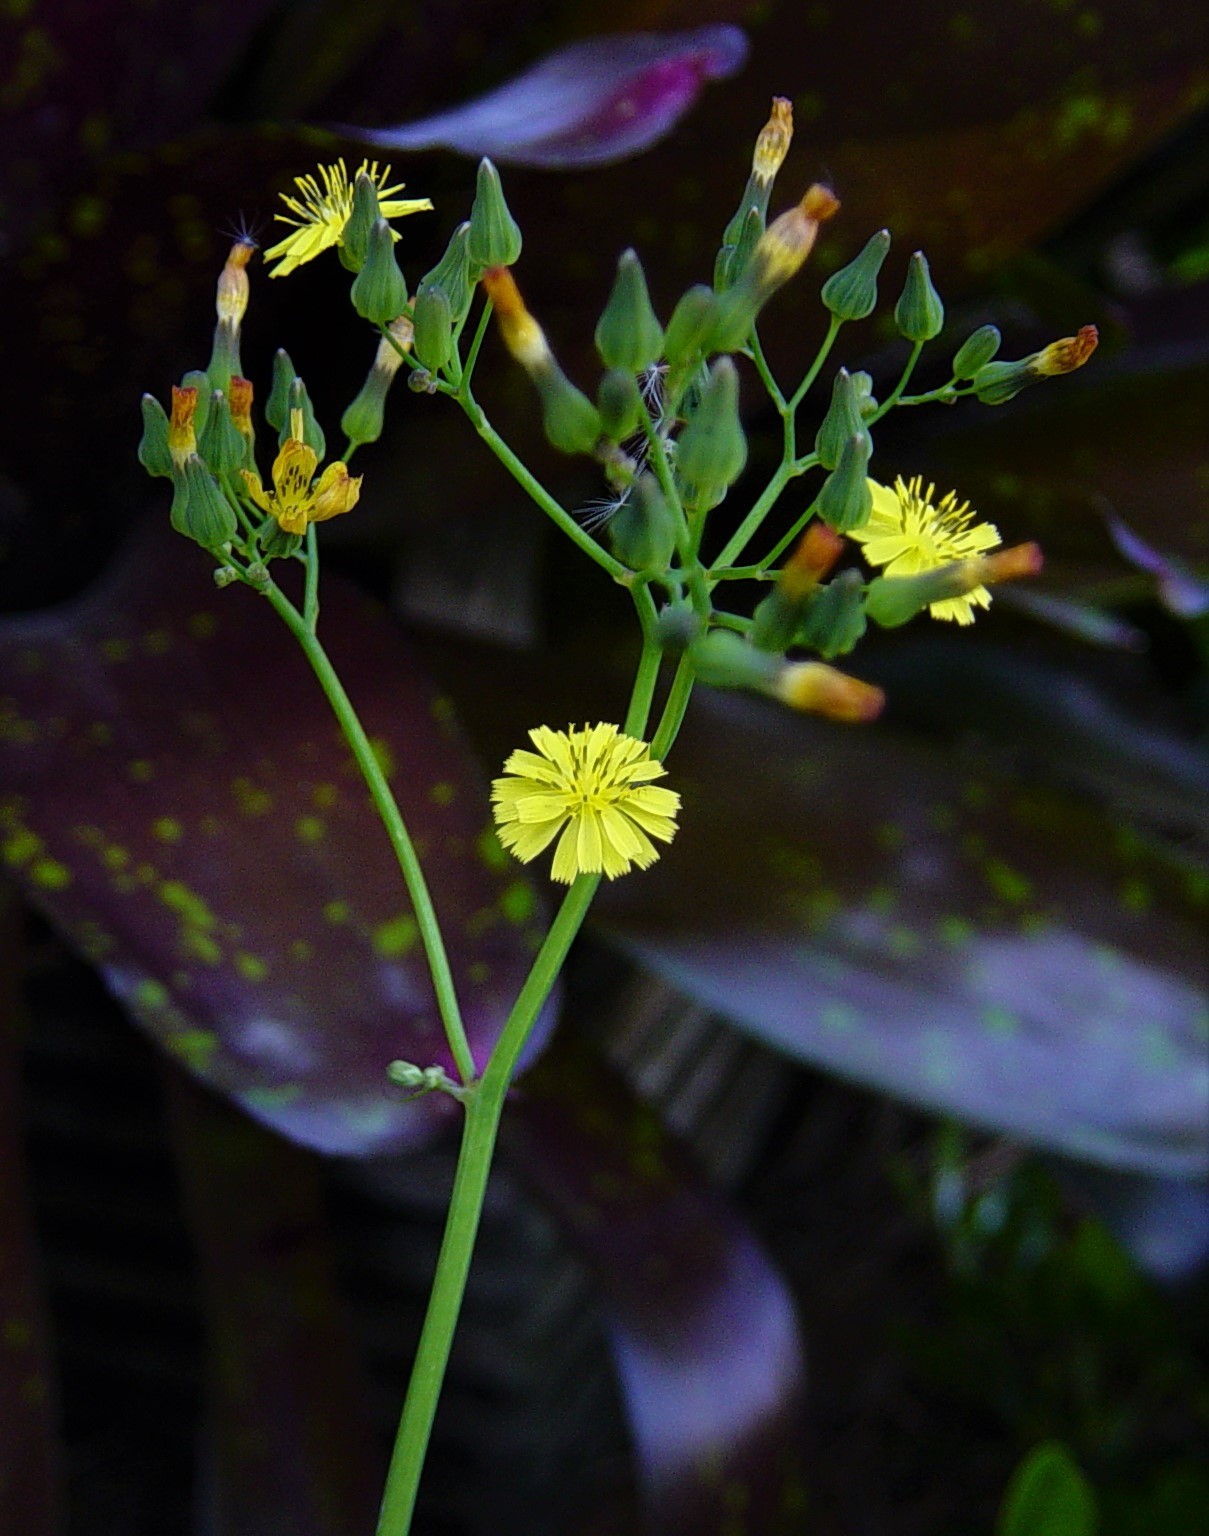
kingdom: Plantae
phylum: Tracheophyta
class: Magnoliopsida
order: Asterales
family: Asteraceae
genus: Youngia
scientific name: Youngia japonica
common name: Oriental false hawksbeard
